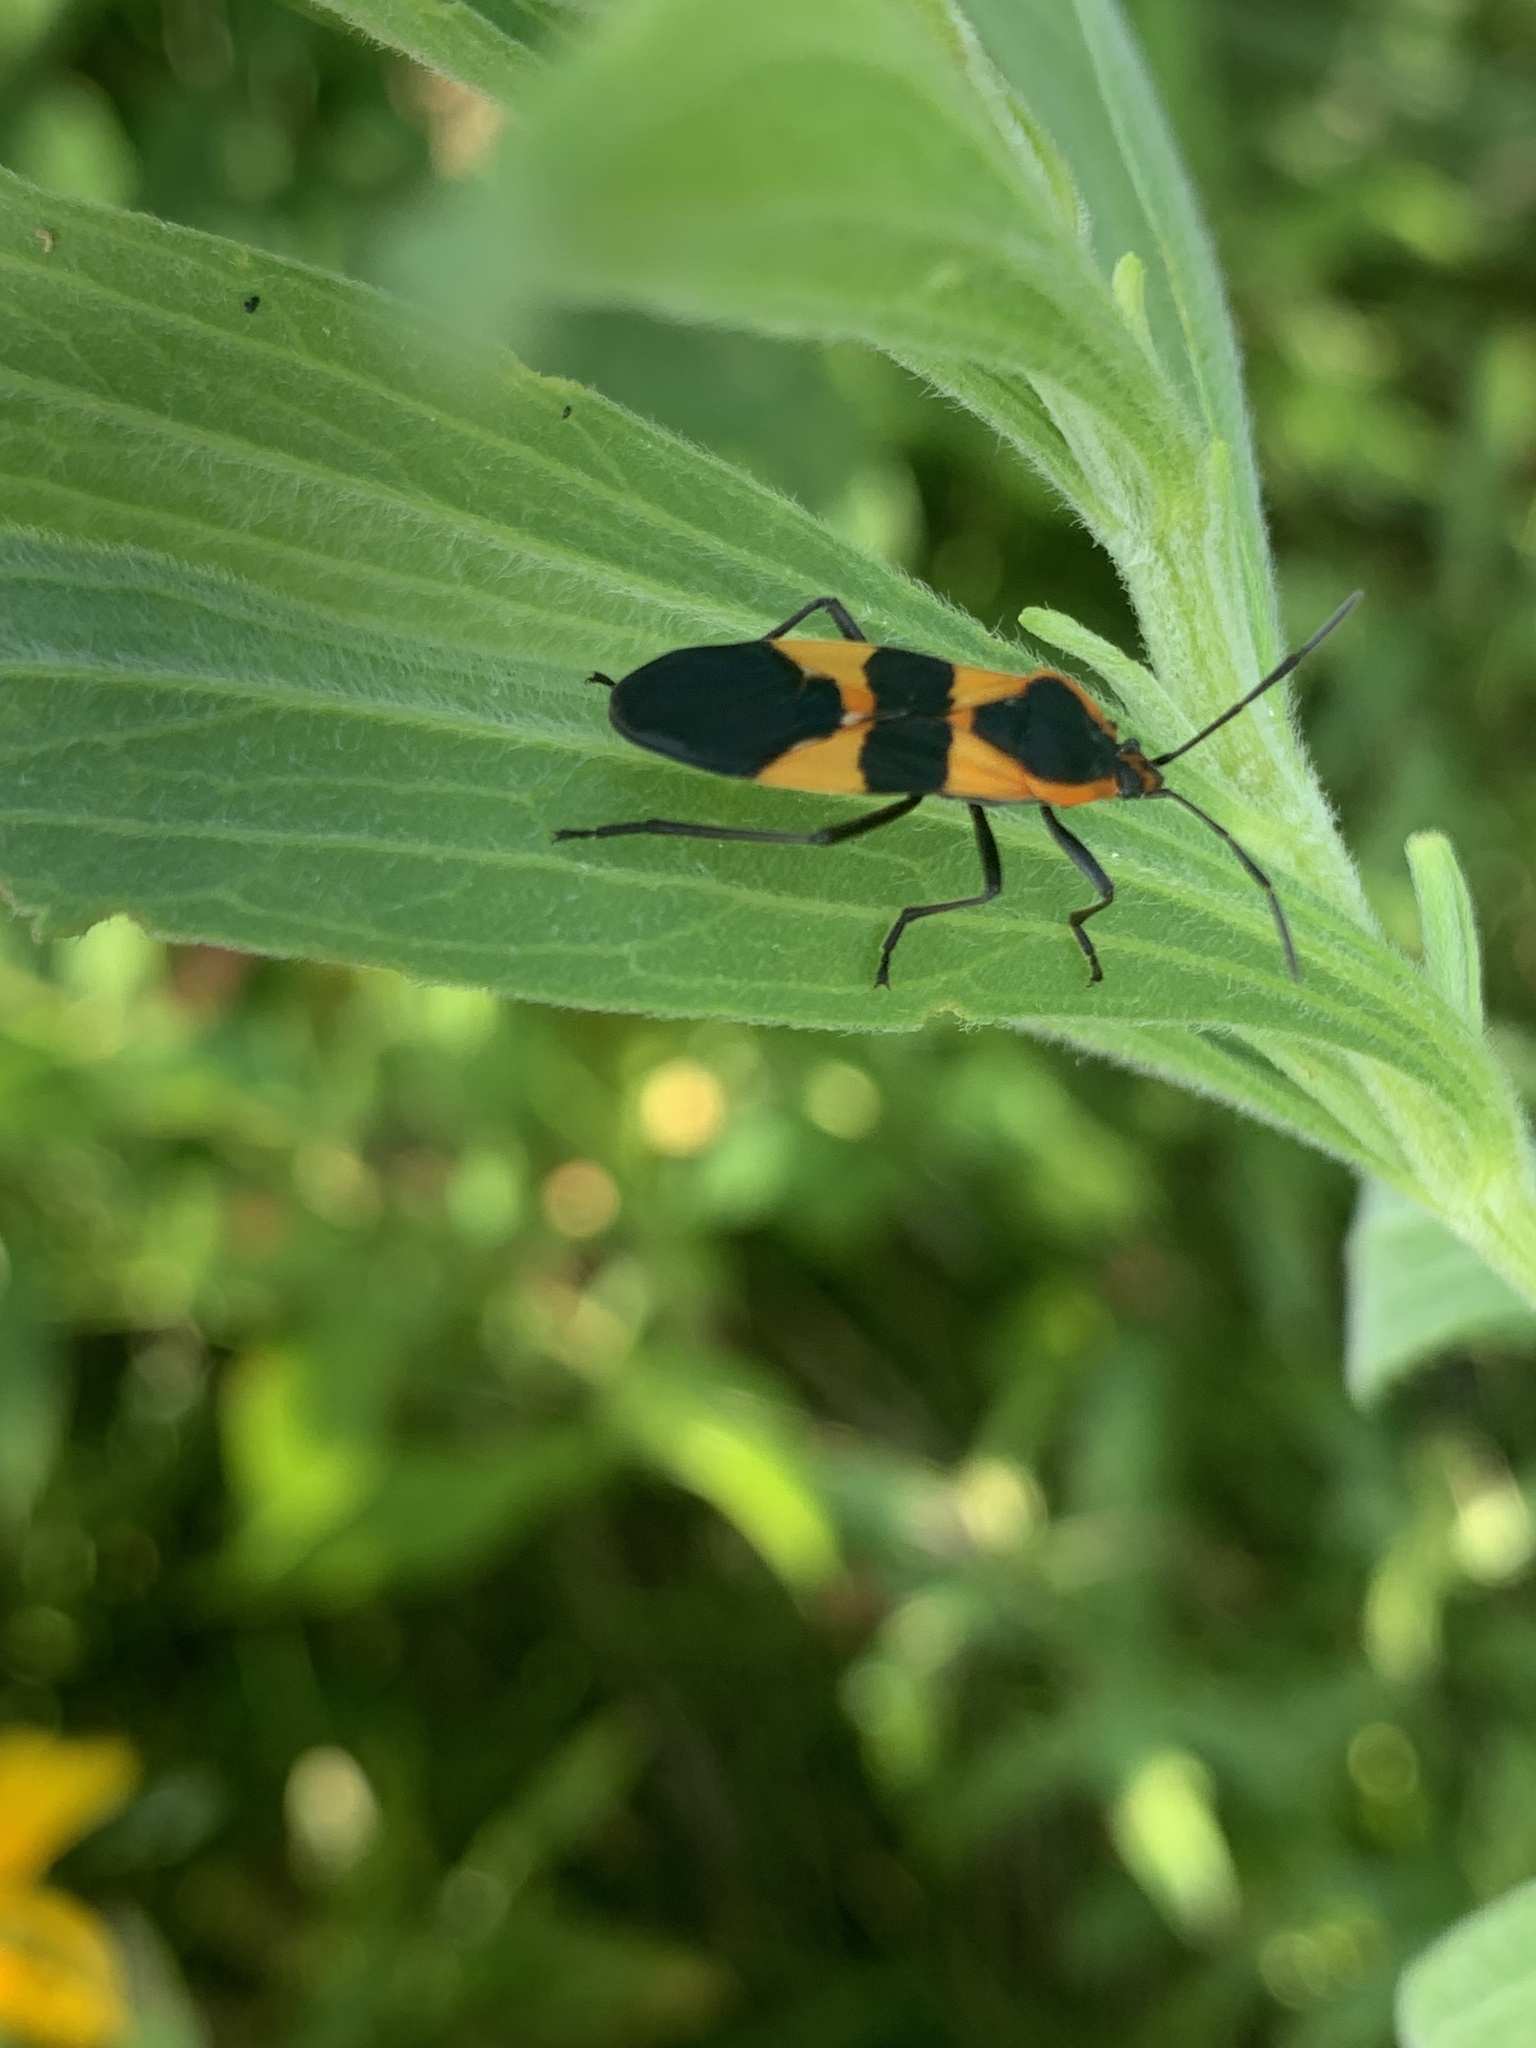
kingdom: Animalia
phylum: Arthropoda
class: Insecta
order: Hemiptera
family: Lygaeidae
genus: Oncopeltus
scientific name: Oncopeltus fasciatus
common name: Large milkweed bug
